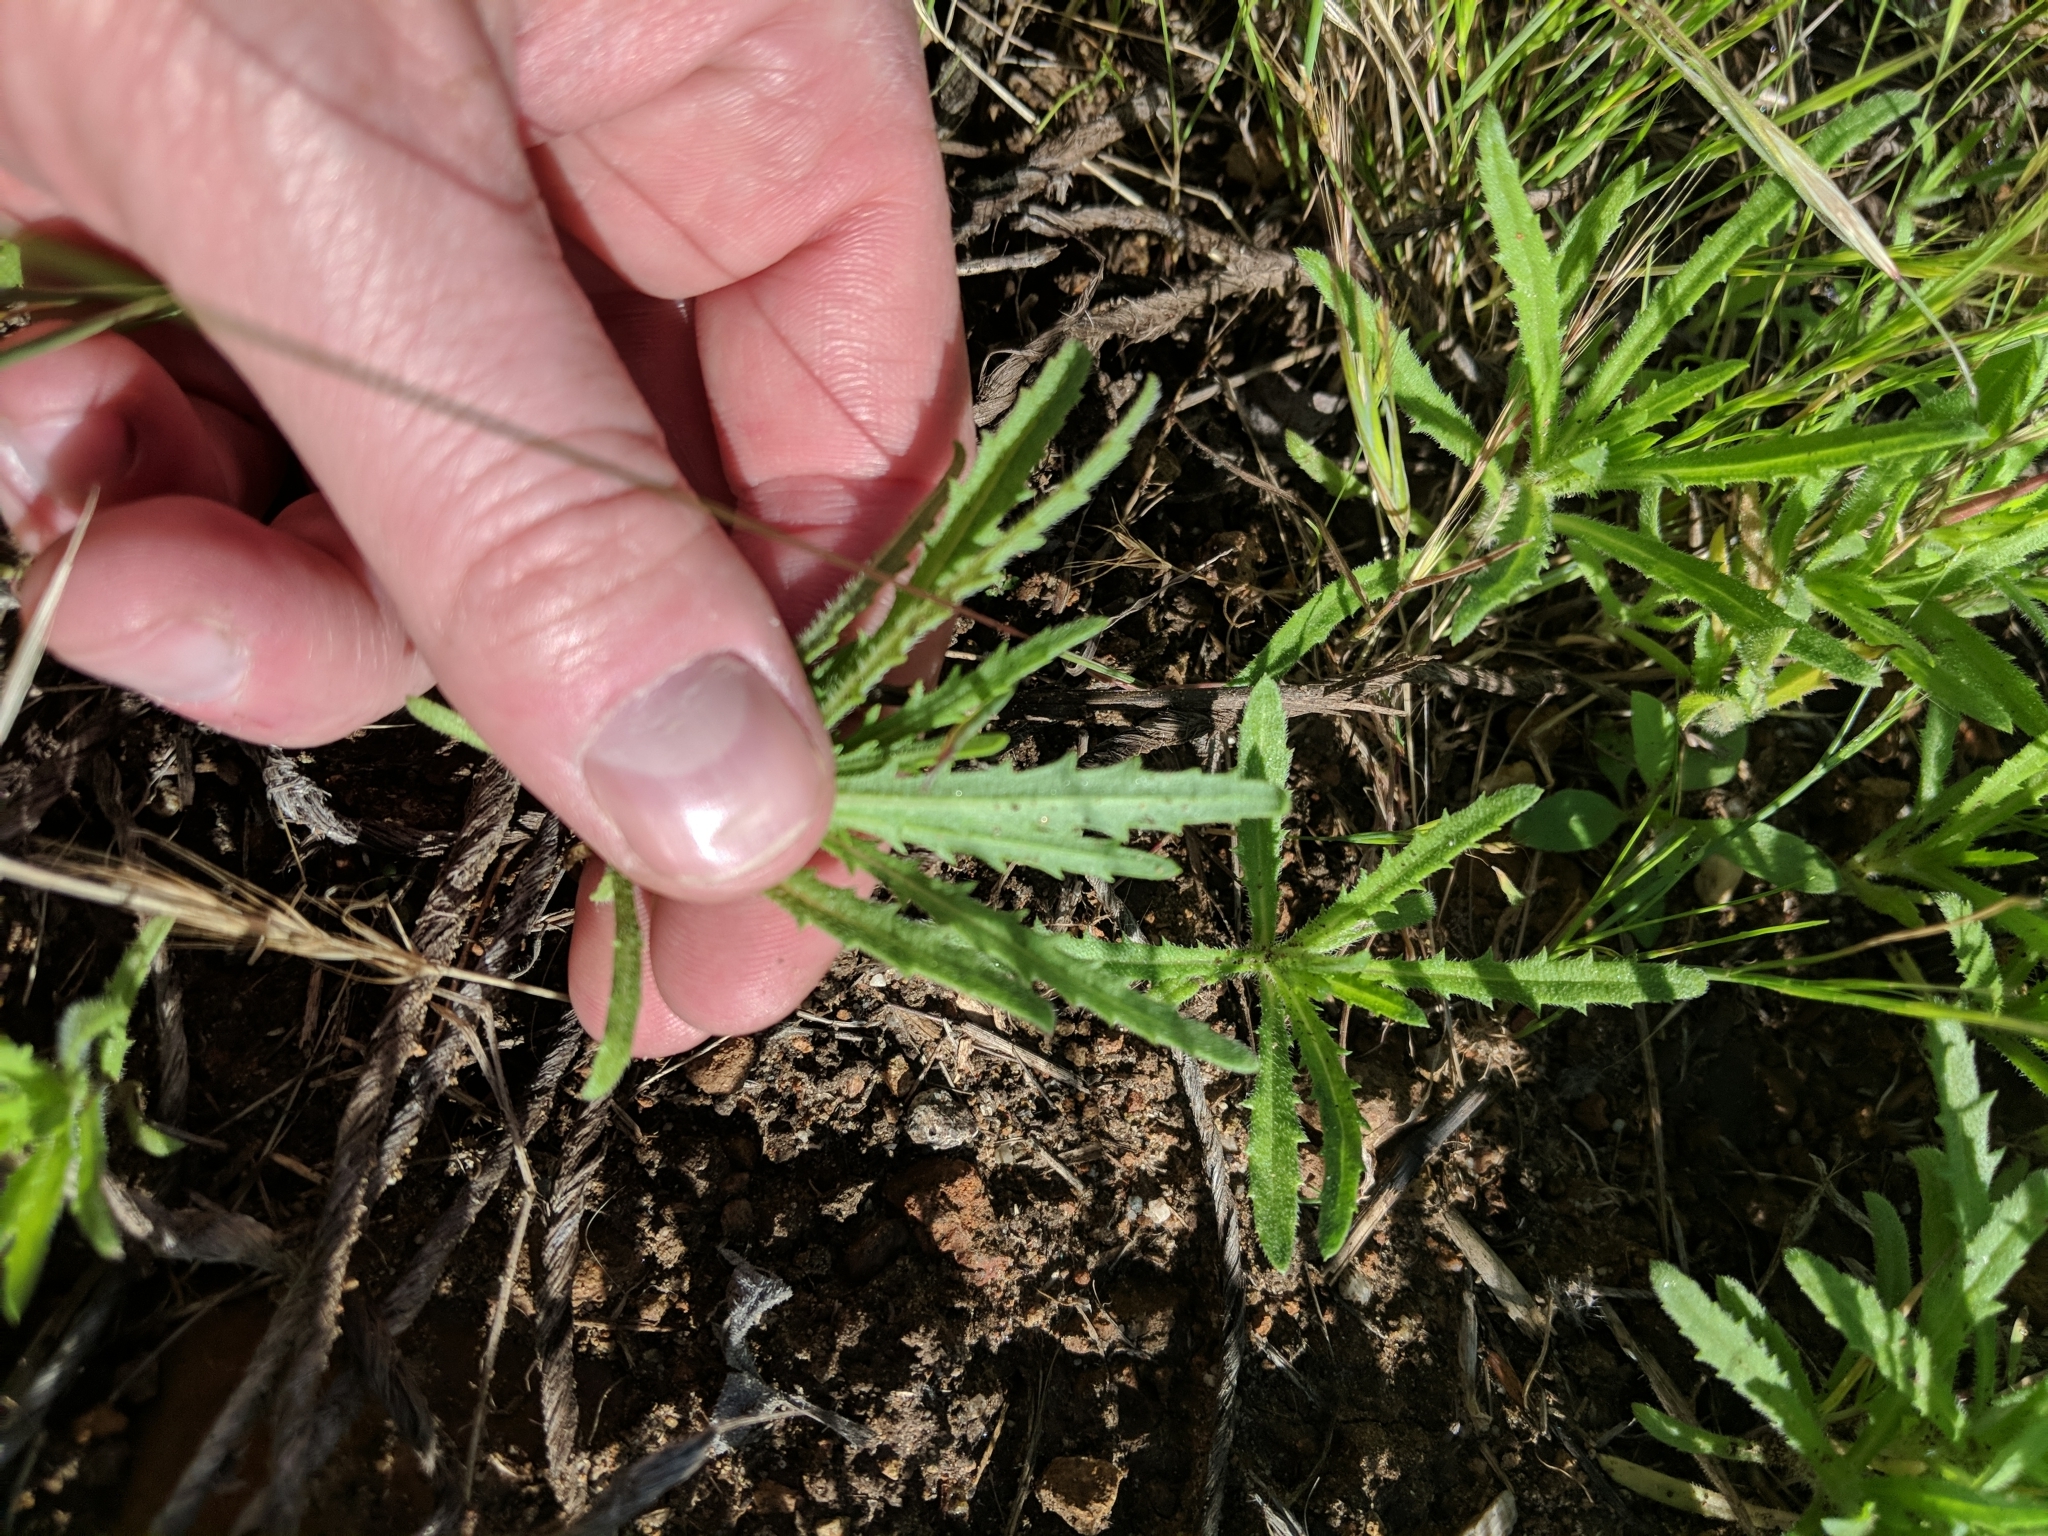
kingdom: Plantae
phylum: Tracheophyta
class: Magnoliopsida
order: Asterales
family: Asteraceae
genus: Deinandra
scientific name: Deinandra fasciculata
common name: Clustered tarweed
